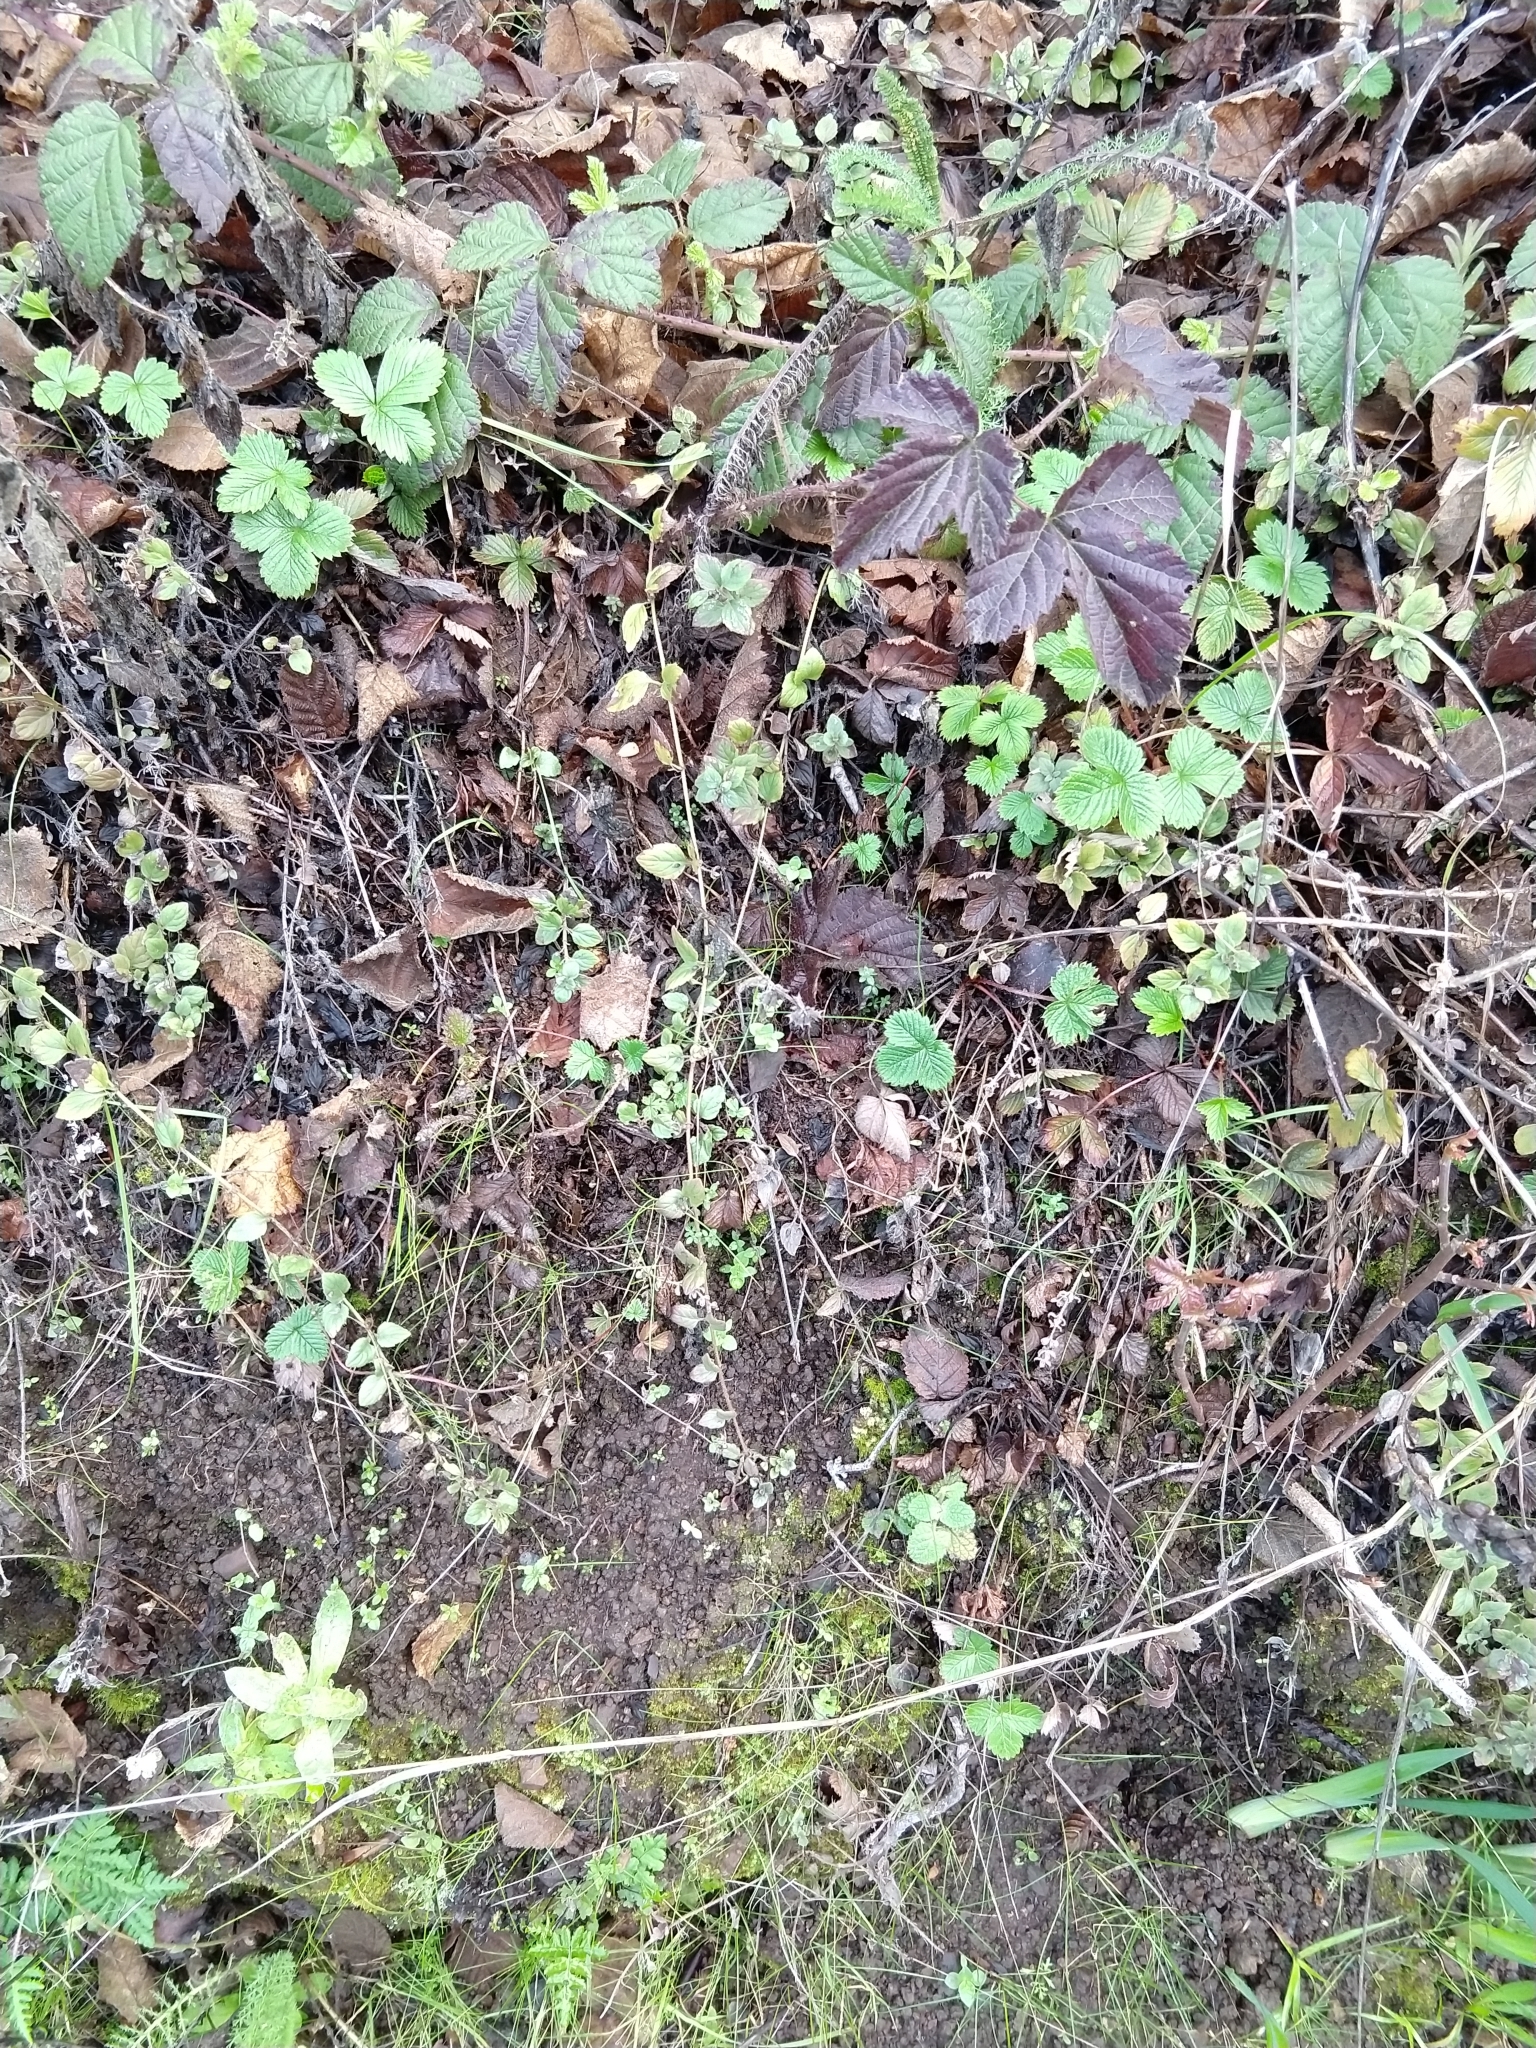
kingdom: Plantae
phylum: Tracheophyta
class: Magnoliopsida
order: Lamiales
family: Lamiaceae
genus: Micromeria
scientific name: Micromeria douglasii
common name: Yerba buena
